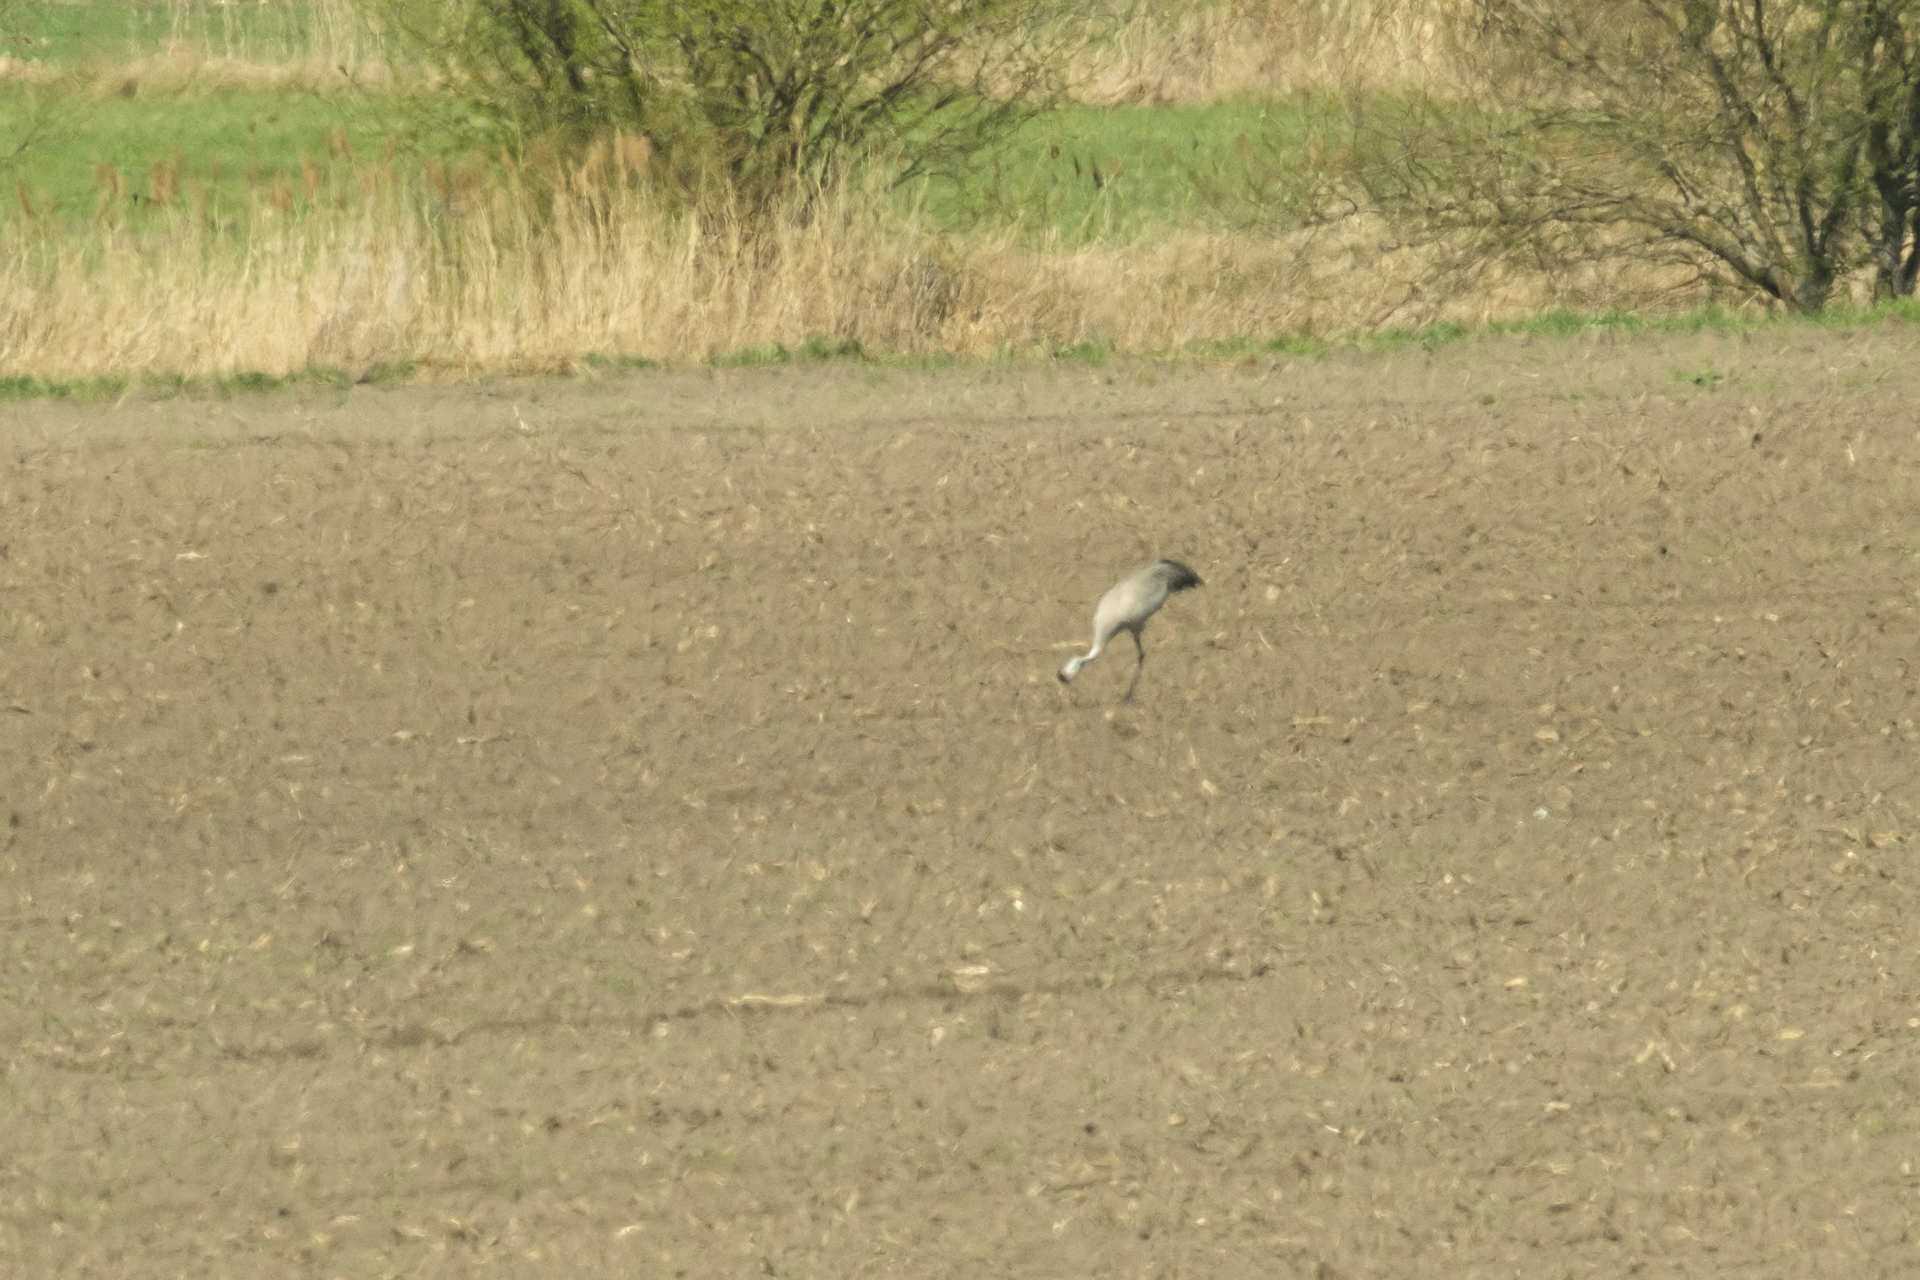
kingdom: Animalia
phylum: Chordata
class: Aves
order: Gruiformes
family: Gruidae
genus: Grus
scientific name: Grus grus
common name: Common crane
